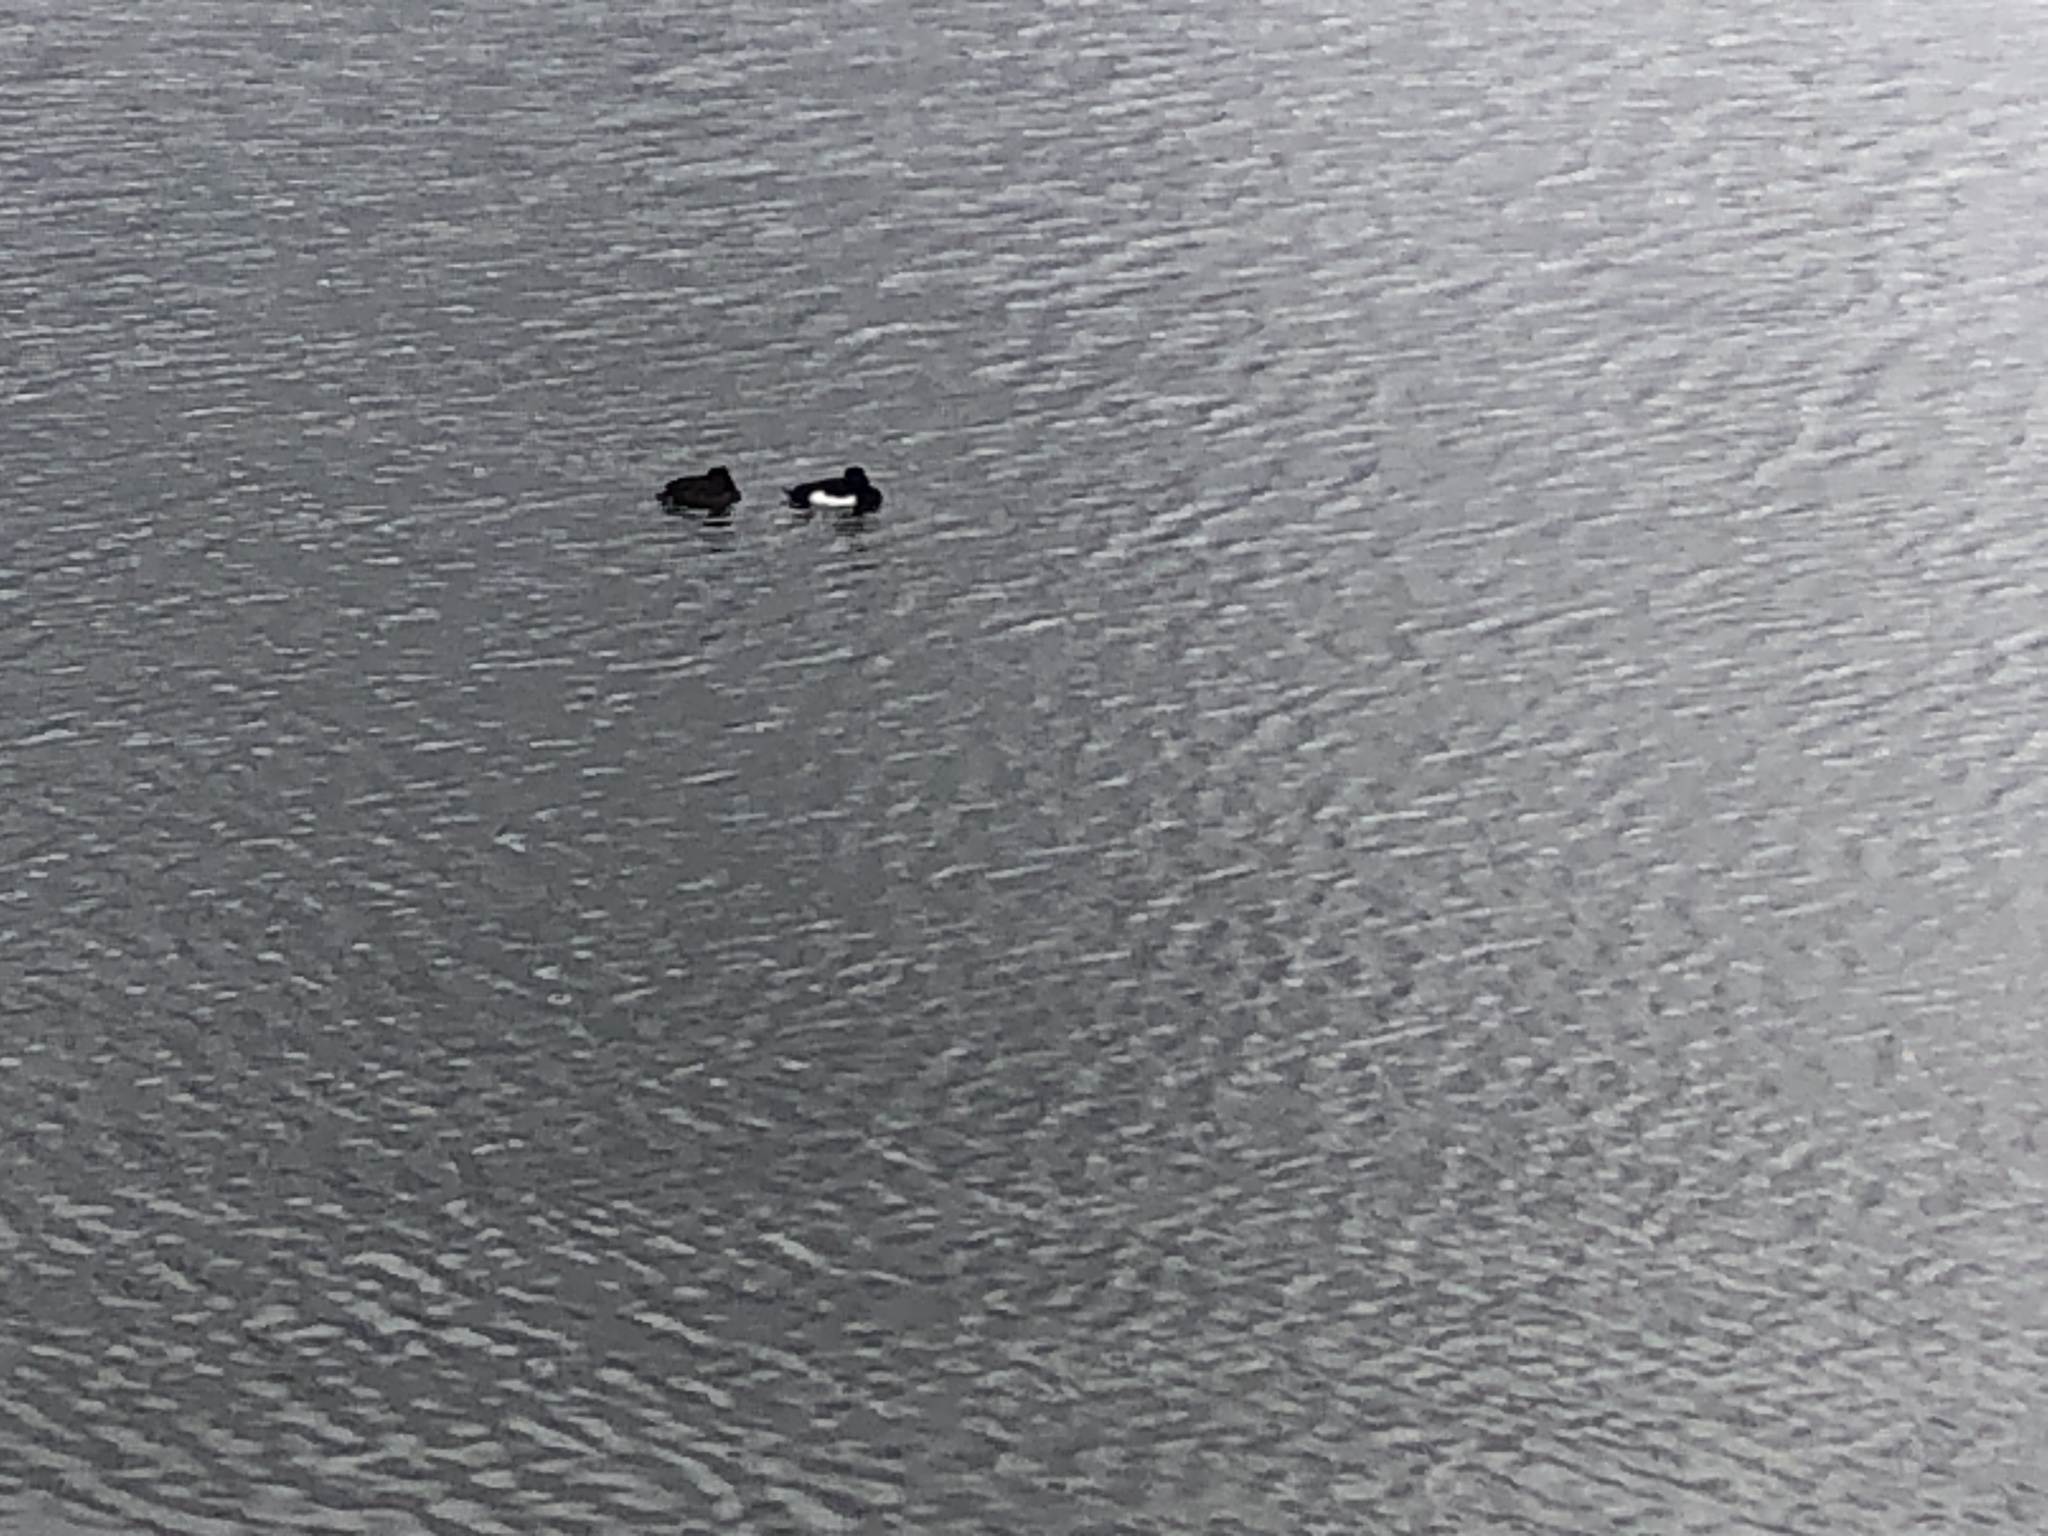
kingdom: Animalia
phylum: Chordata
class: Aves
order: Anseriformes
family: Anatidae
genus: Aythya
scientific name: Aythya fuligula
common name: Tufted duck
